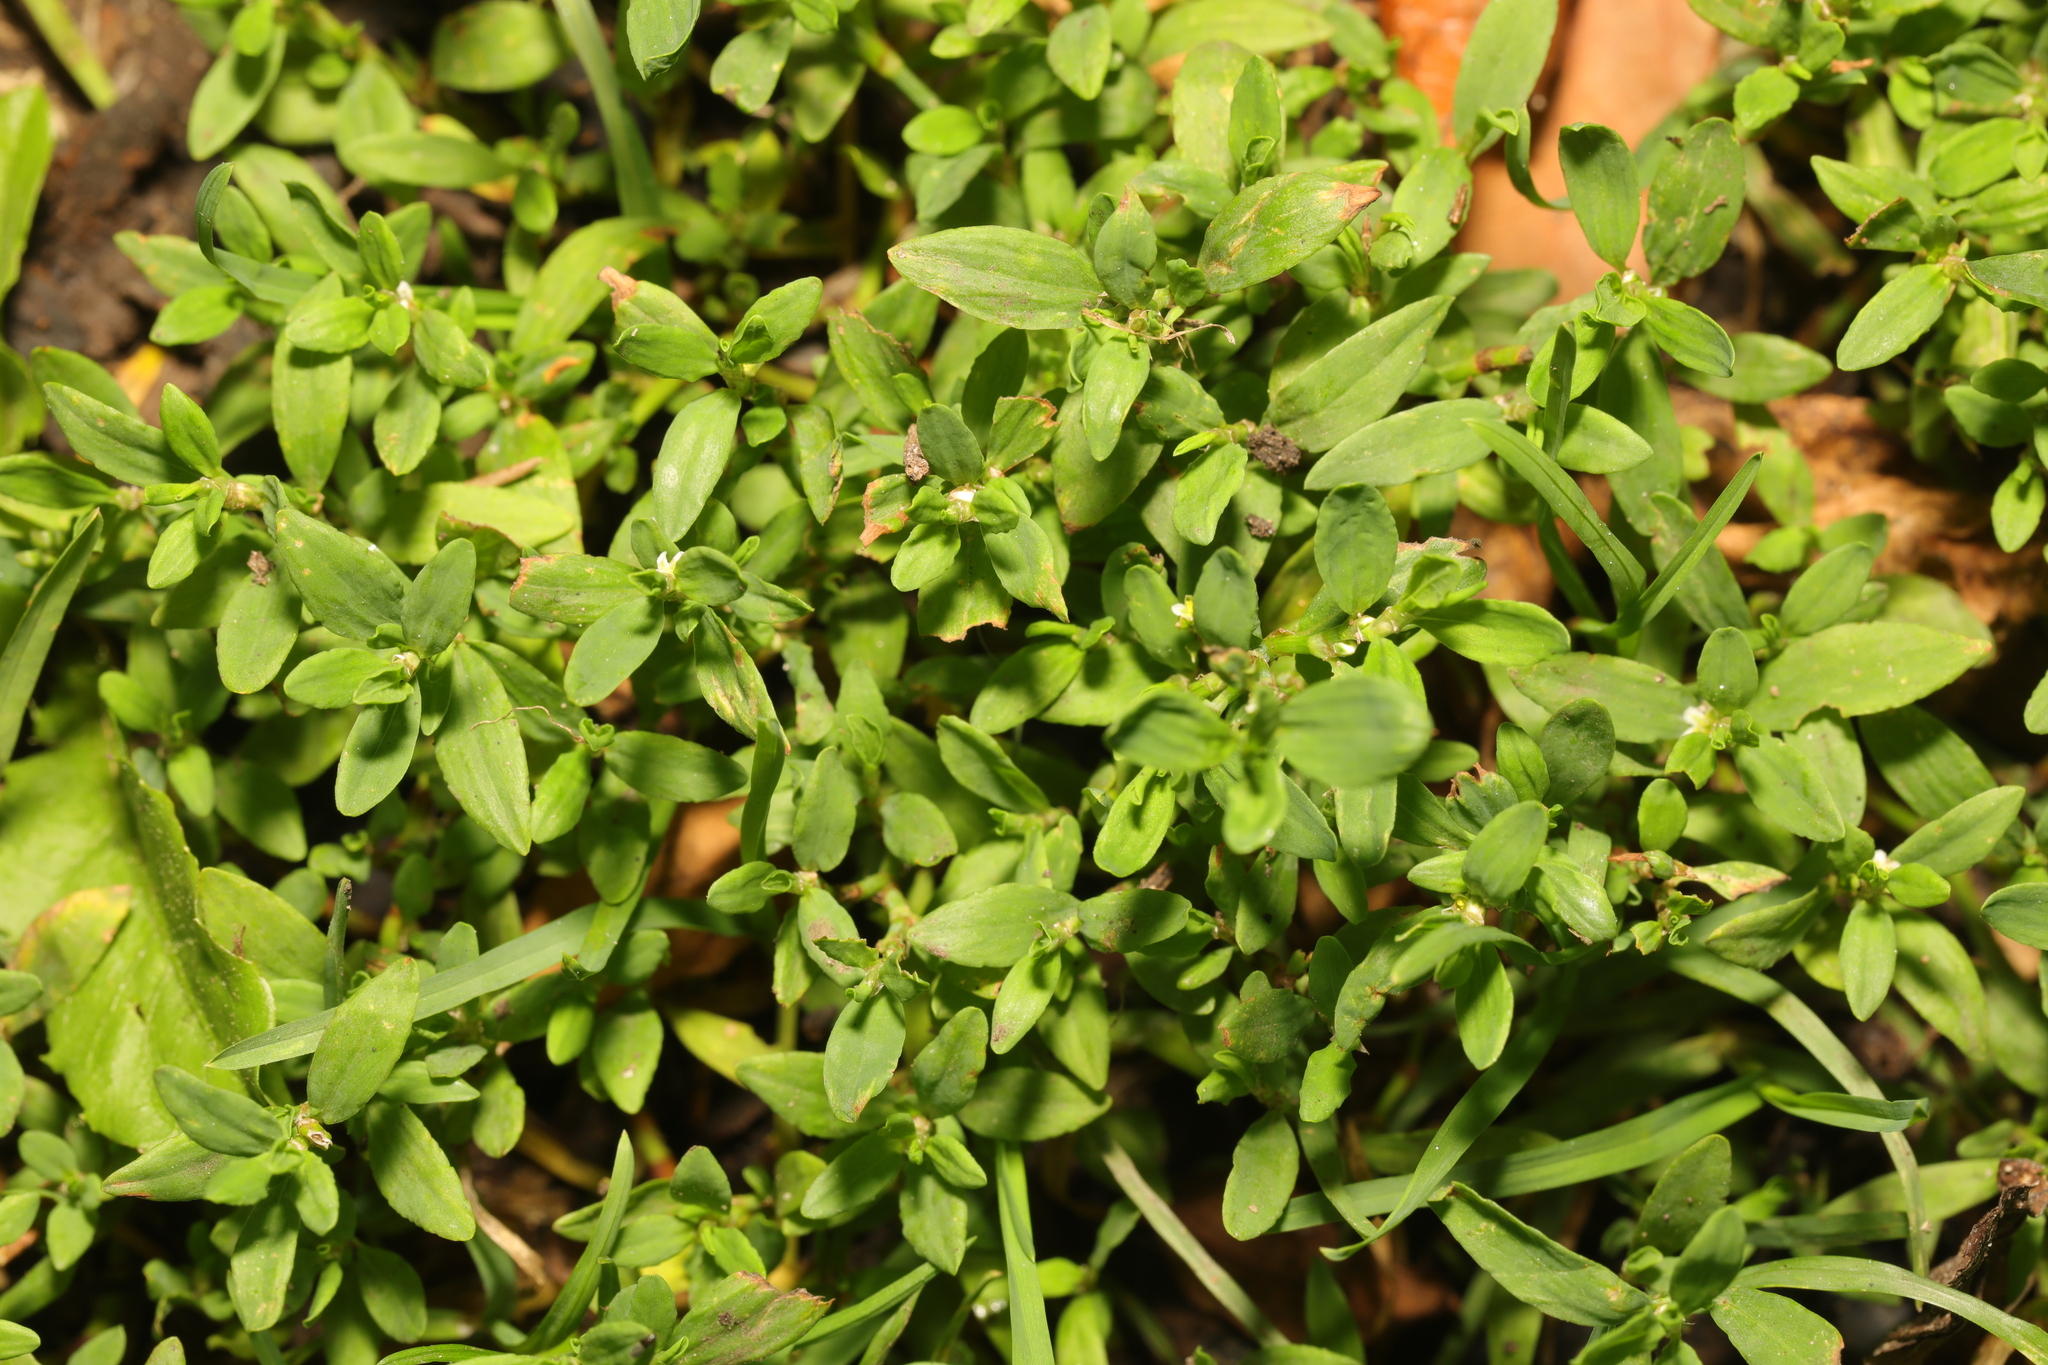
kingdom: Plantae
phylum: Tracheophyta
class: Magnoliopsida
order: Caryophyllales
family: Polygonaceae
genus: Polygonum
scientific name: Polygonum aviculare
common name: Prostrate knotweed
